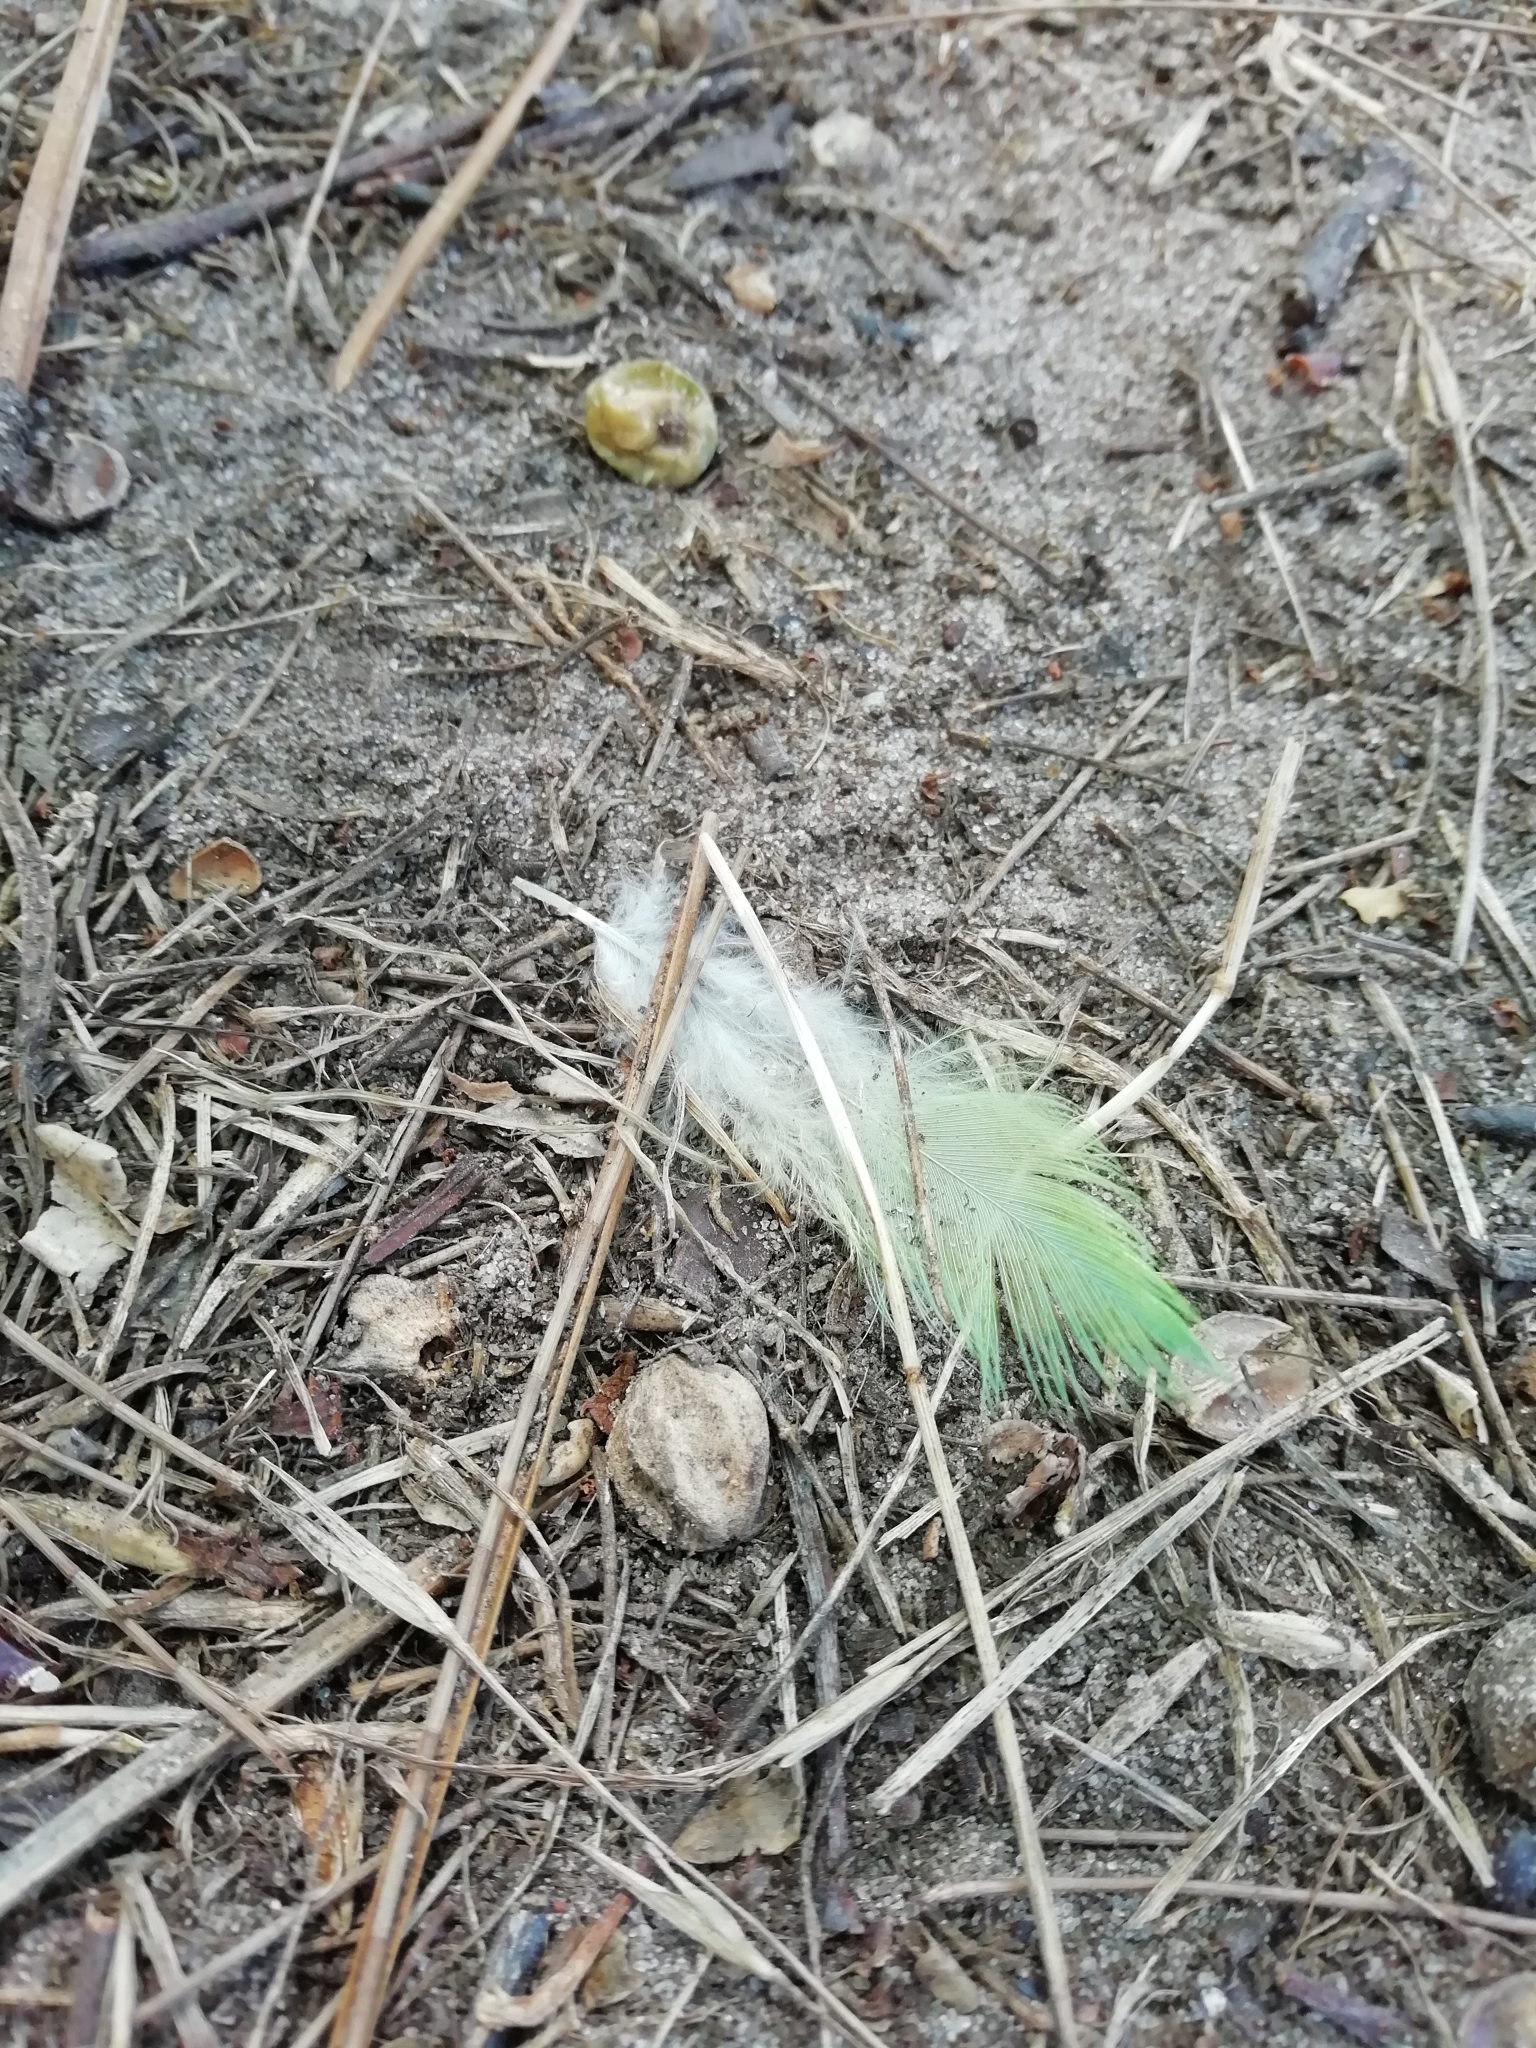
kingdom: Animalia
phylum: Chordata
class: Aves
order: Psittaciformes
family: Psittacidae
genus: Myiopsitta
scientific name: Myiopsitta monachus
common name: Monk parakeet
